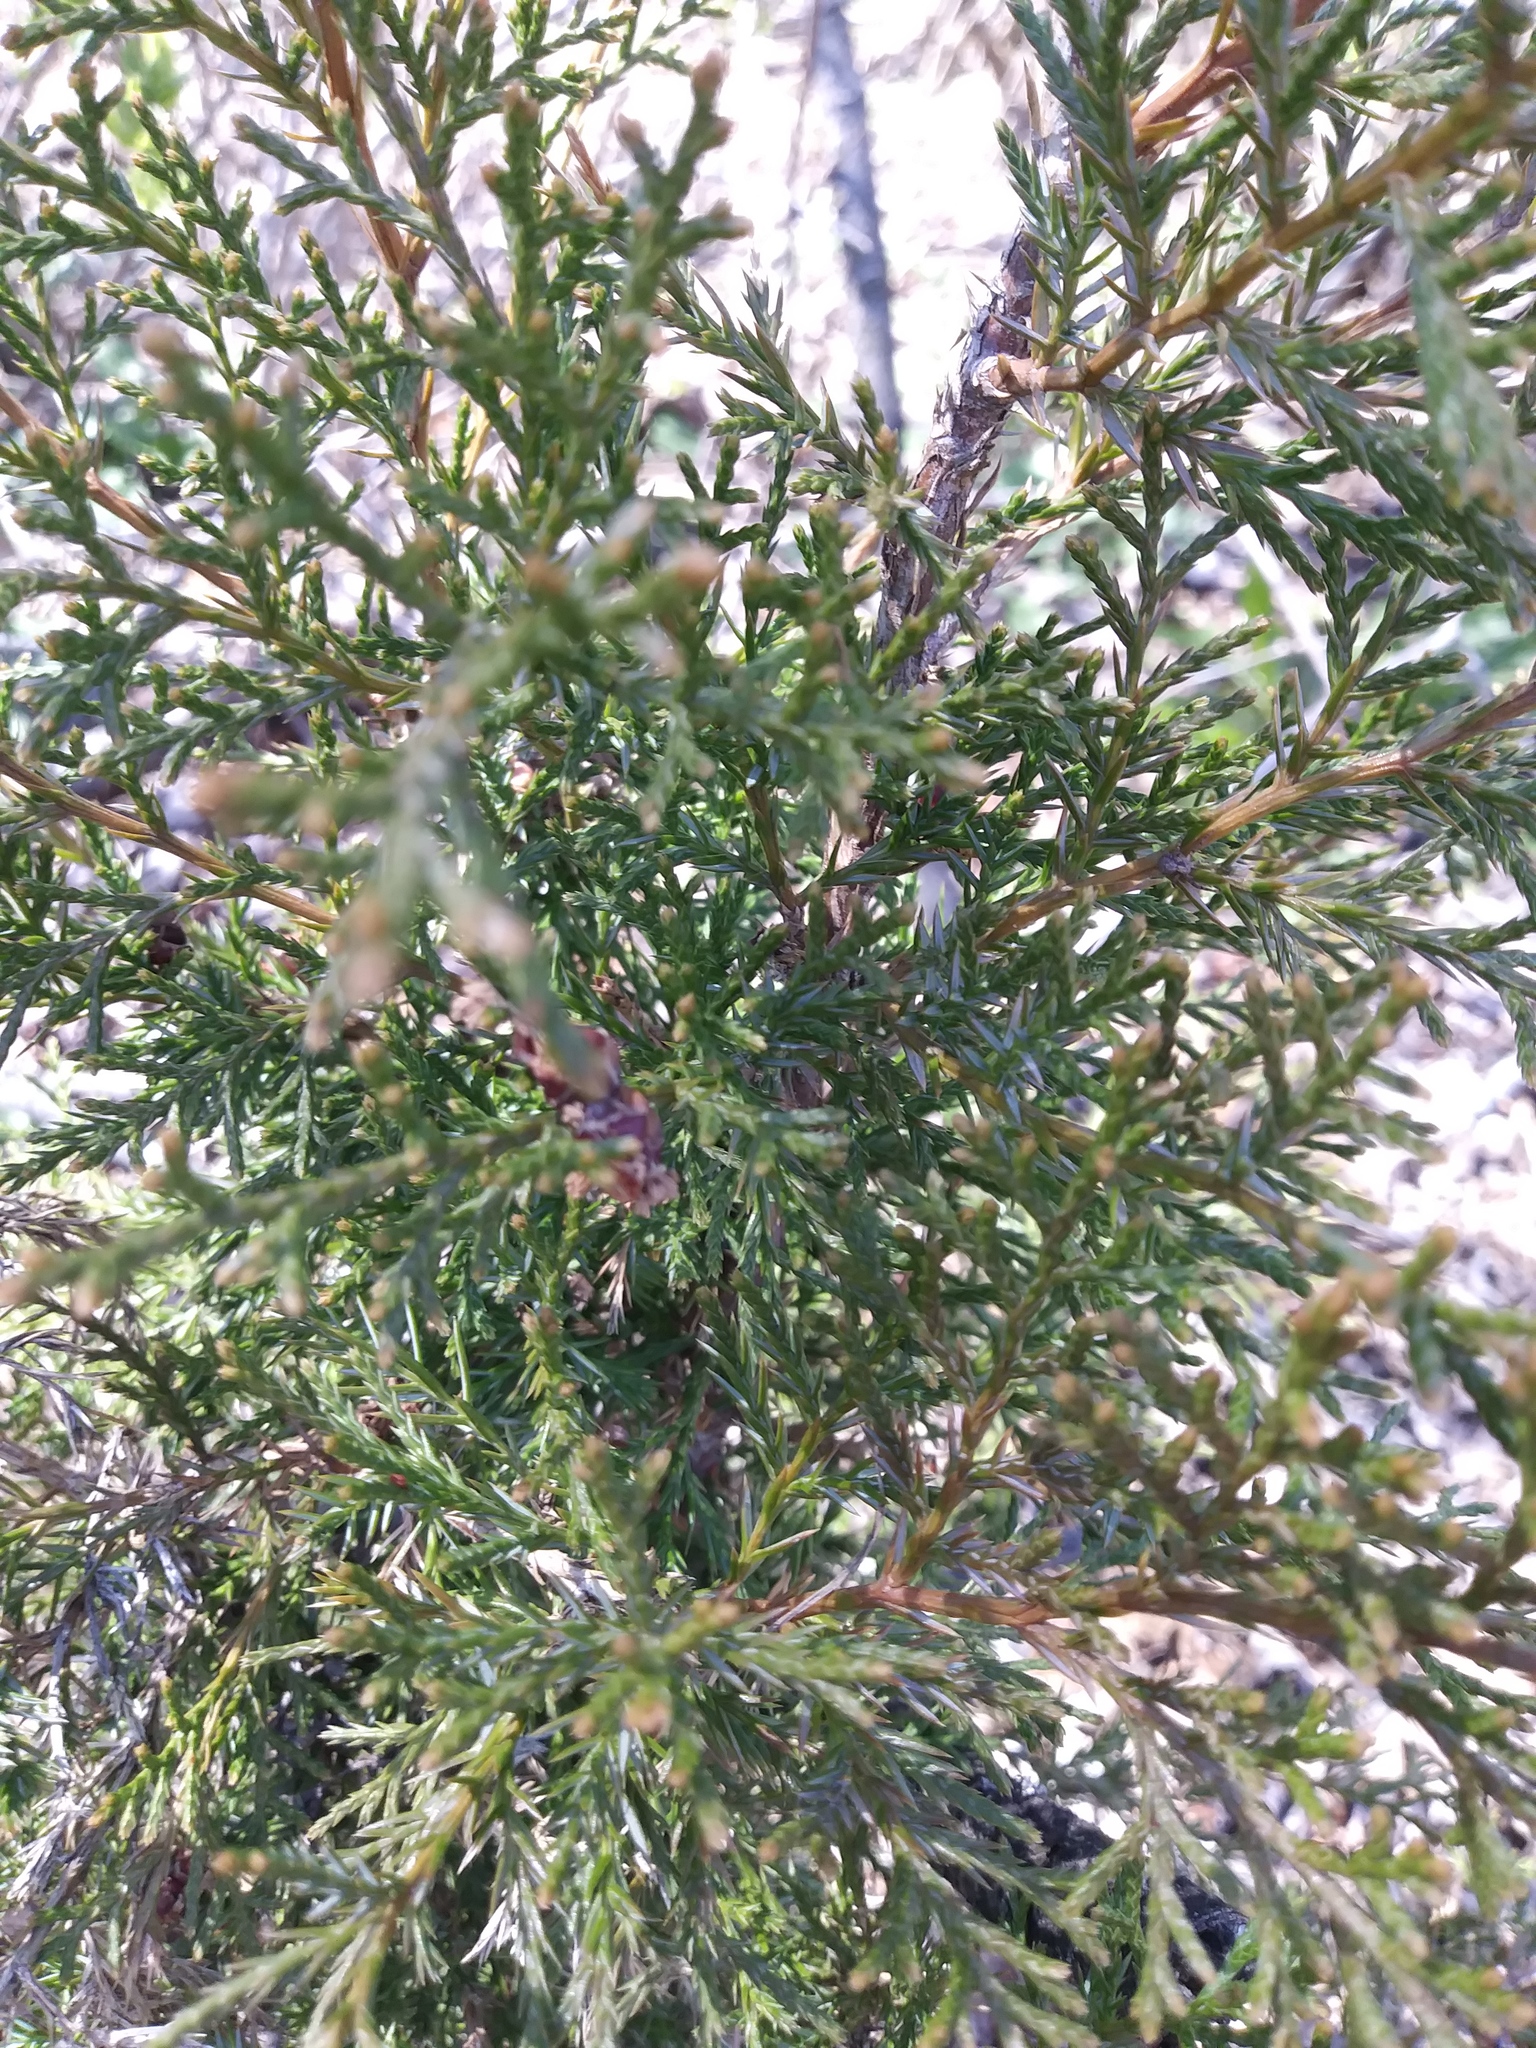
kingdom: Plantae
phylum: Tracheophyta
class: Pinopsida
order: Pinales
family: Cupressaceae
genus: Juniperus
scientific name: Juniperus virginiana
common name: Red juniper
